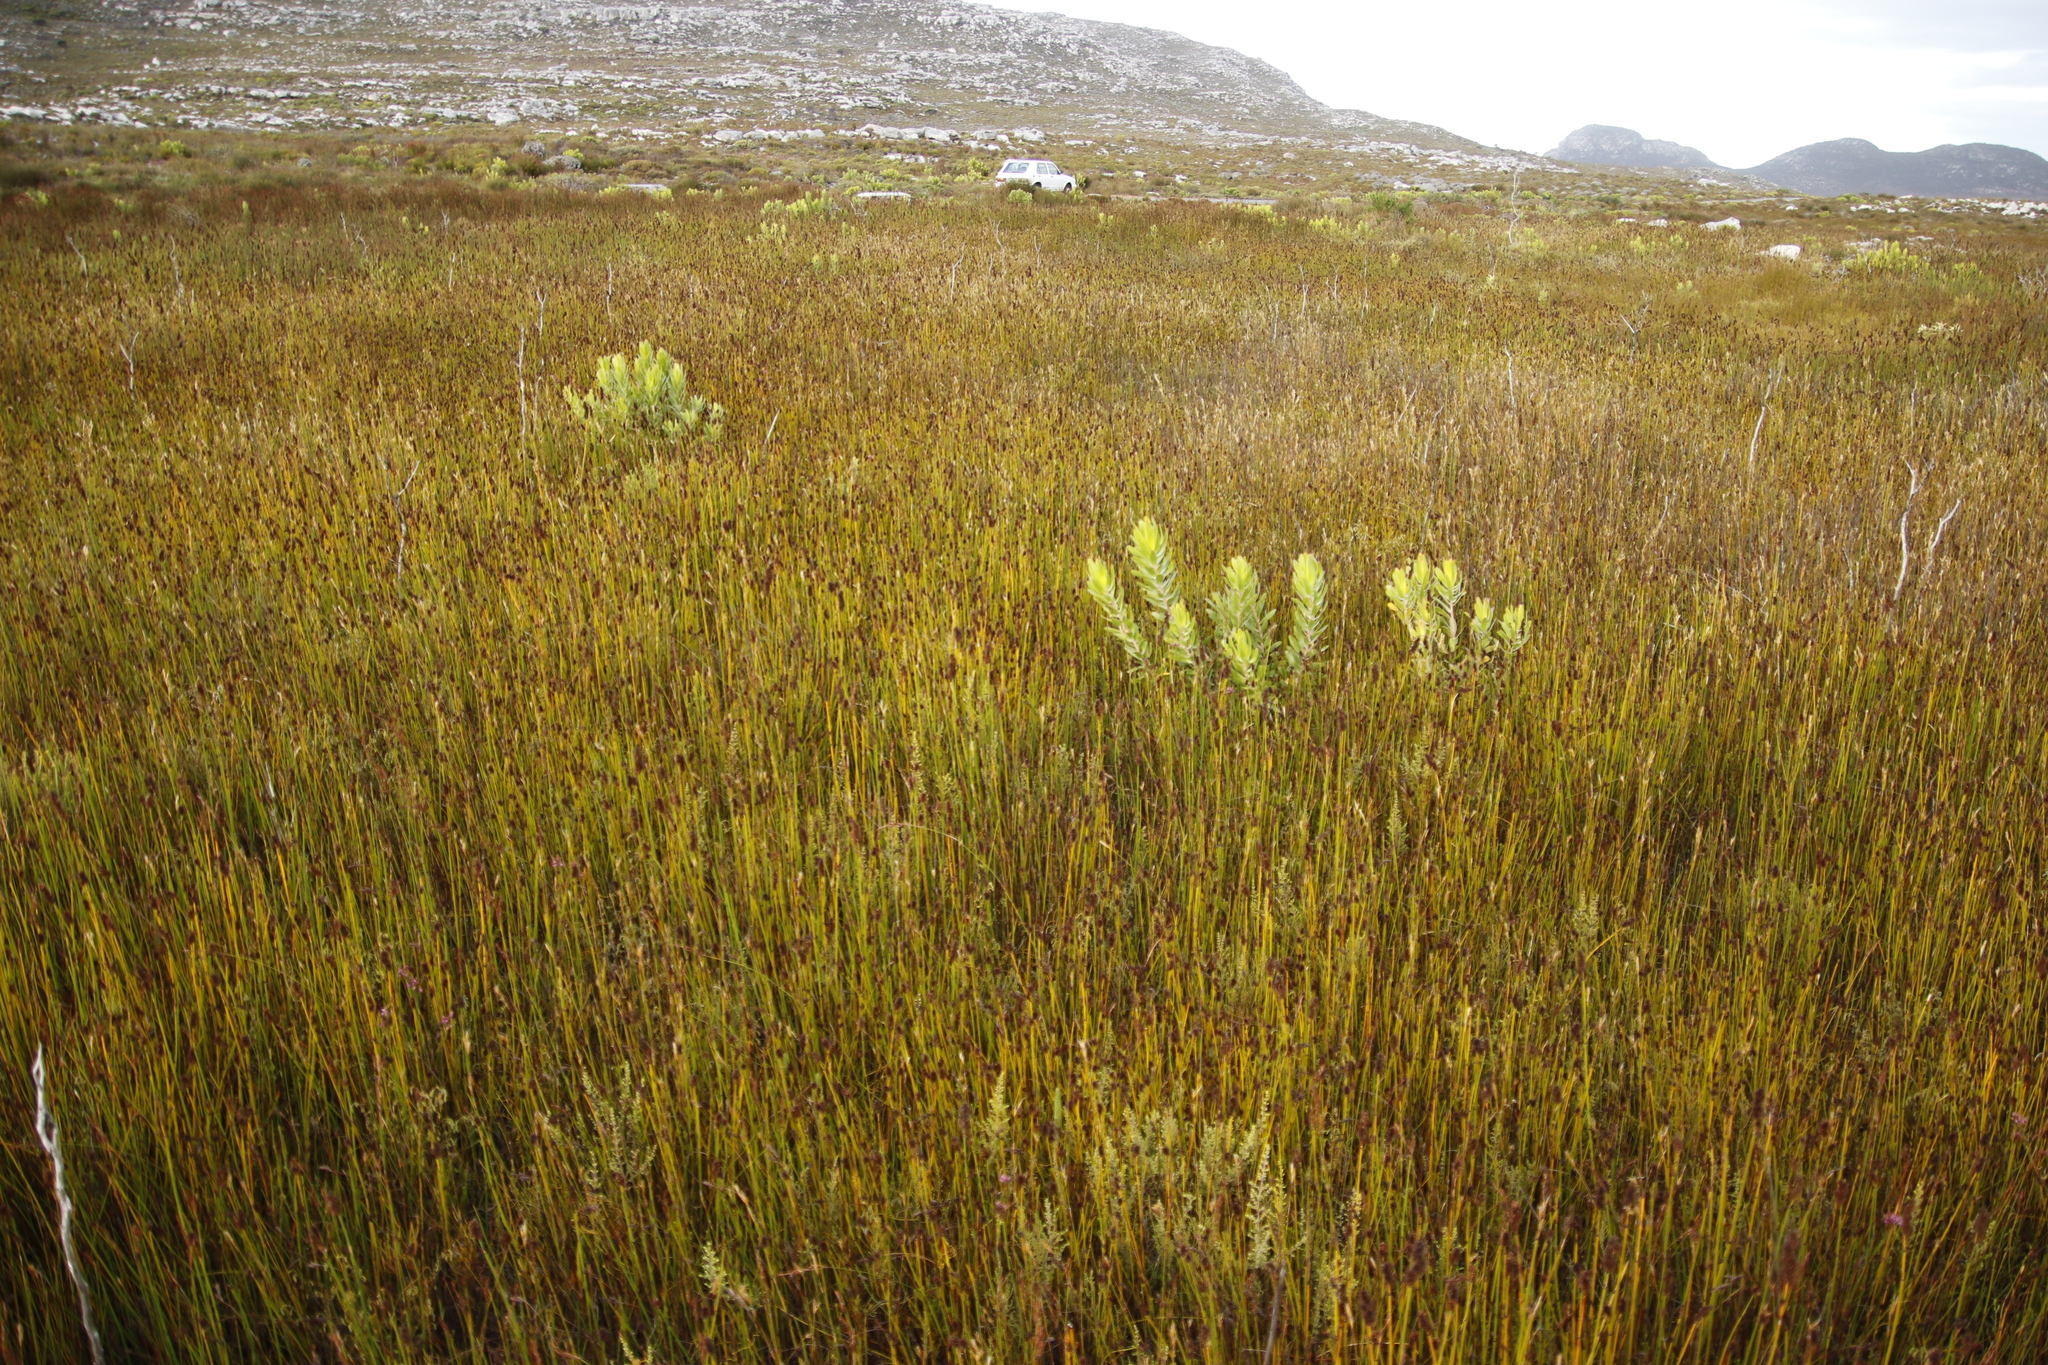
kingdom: Plantae
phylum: Tracheophyta
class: Magnoliopsida
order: Proteales
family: Proteaceae
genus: Leucadendron
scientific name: Leucadendron laureolum
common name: Golden sunshinebush
